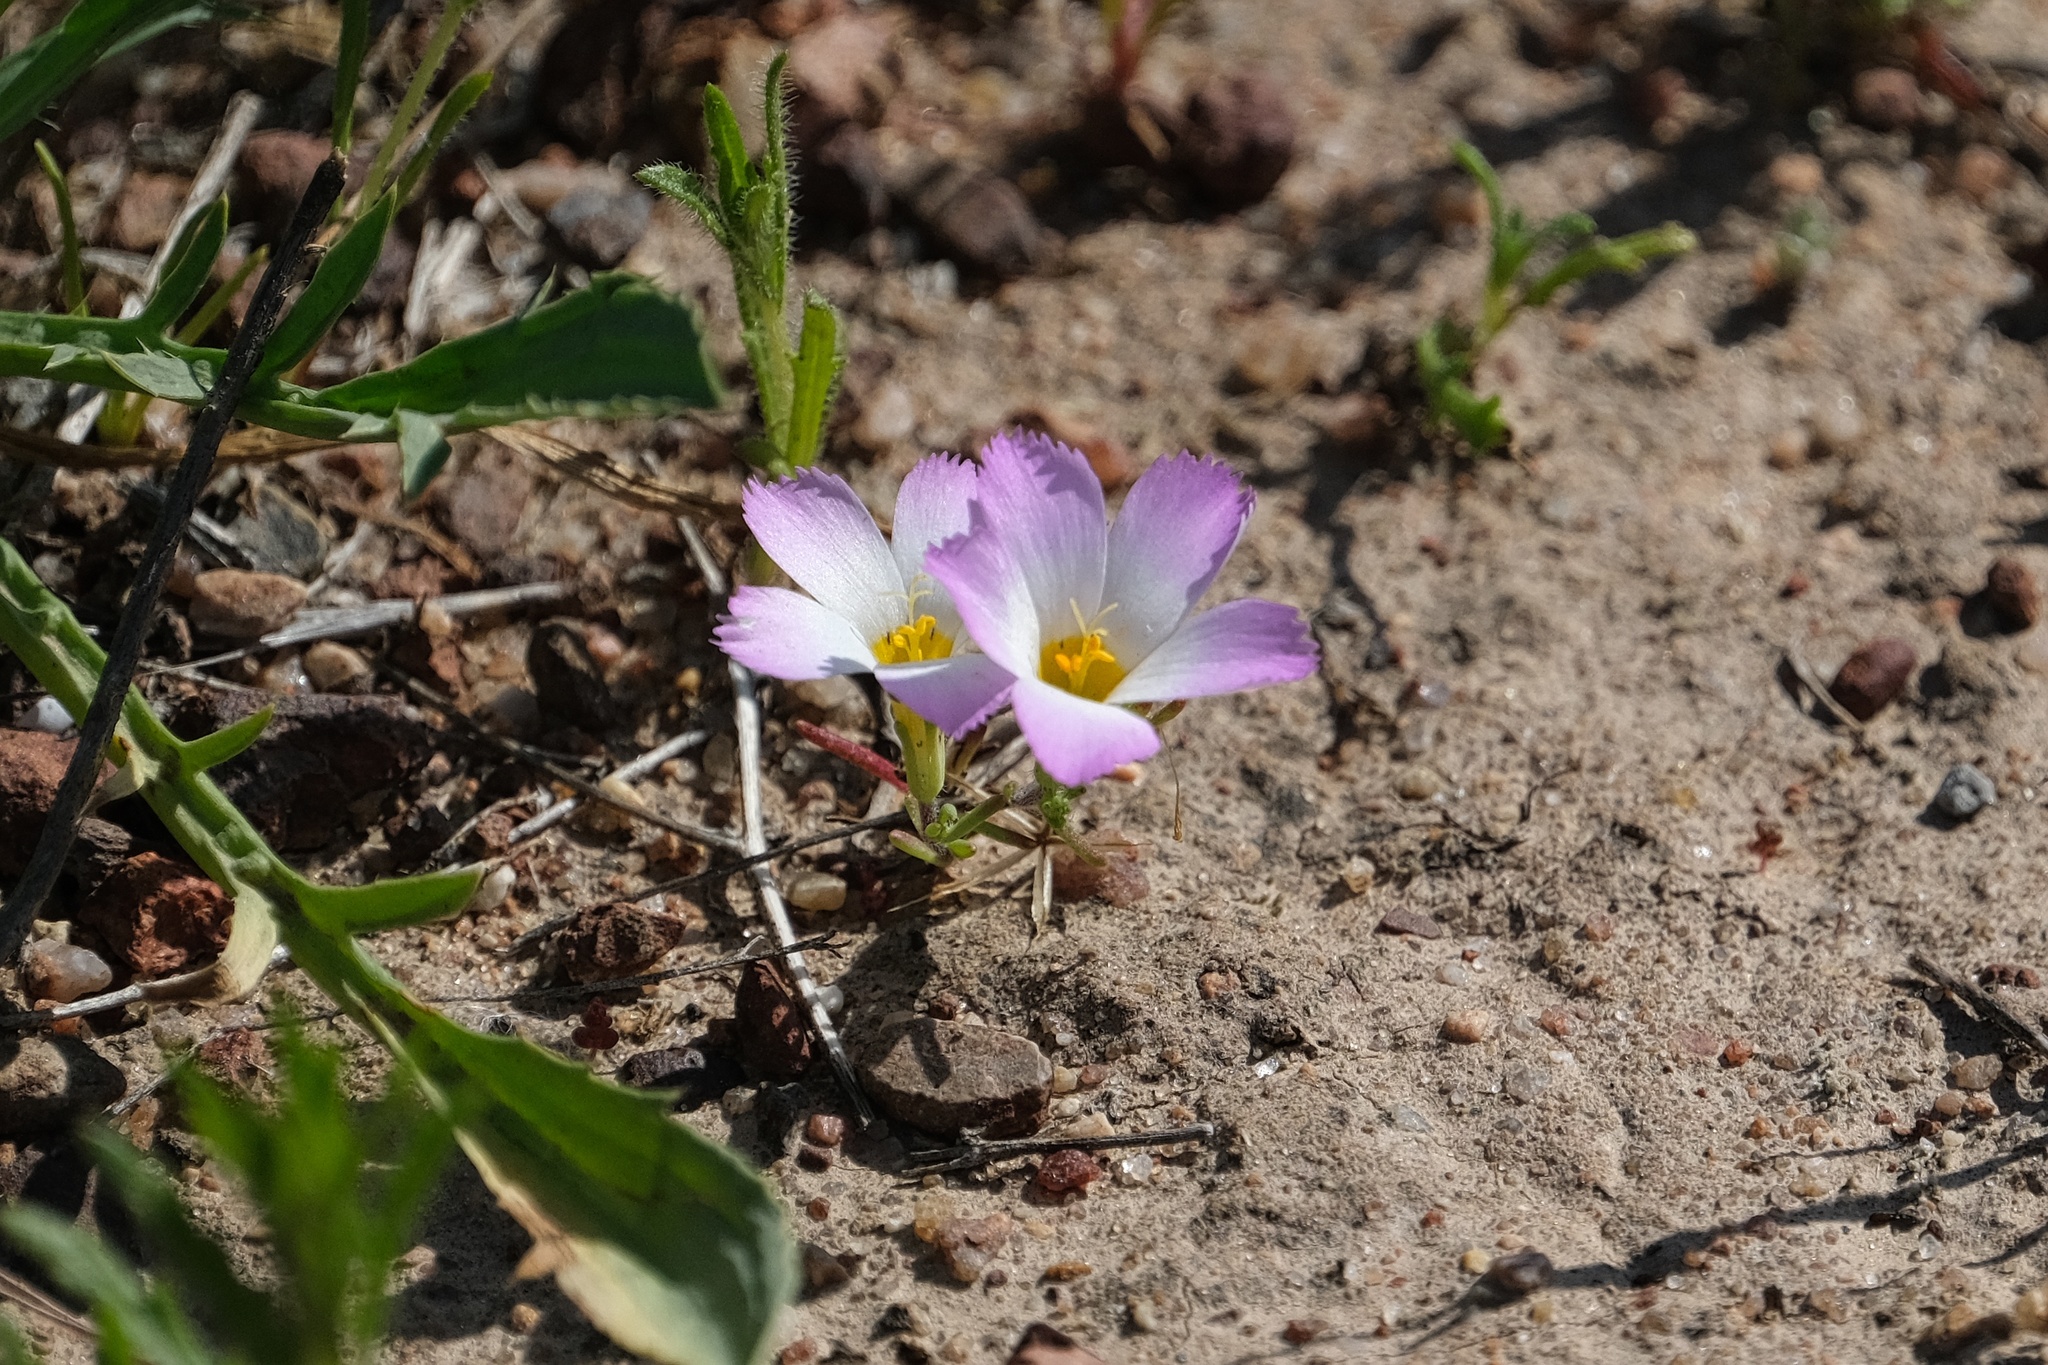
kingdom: Plantae
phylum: Tracheophyta
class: Magnoliopsida
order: Ericales
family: Polemoniaceae
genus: Linanthus
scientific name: Linanthus dianthiflorus
